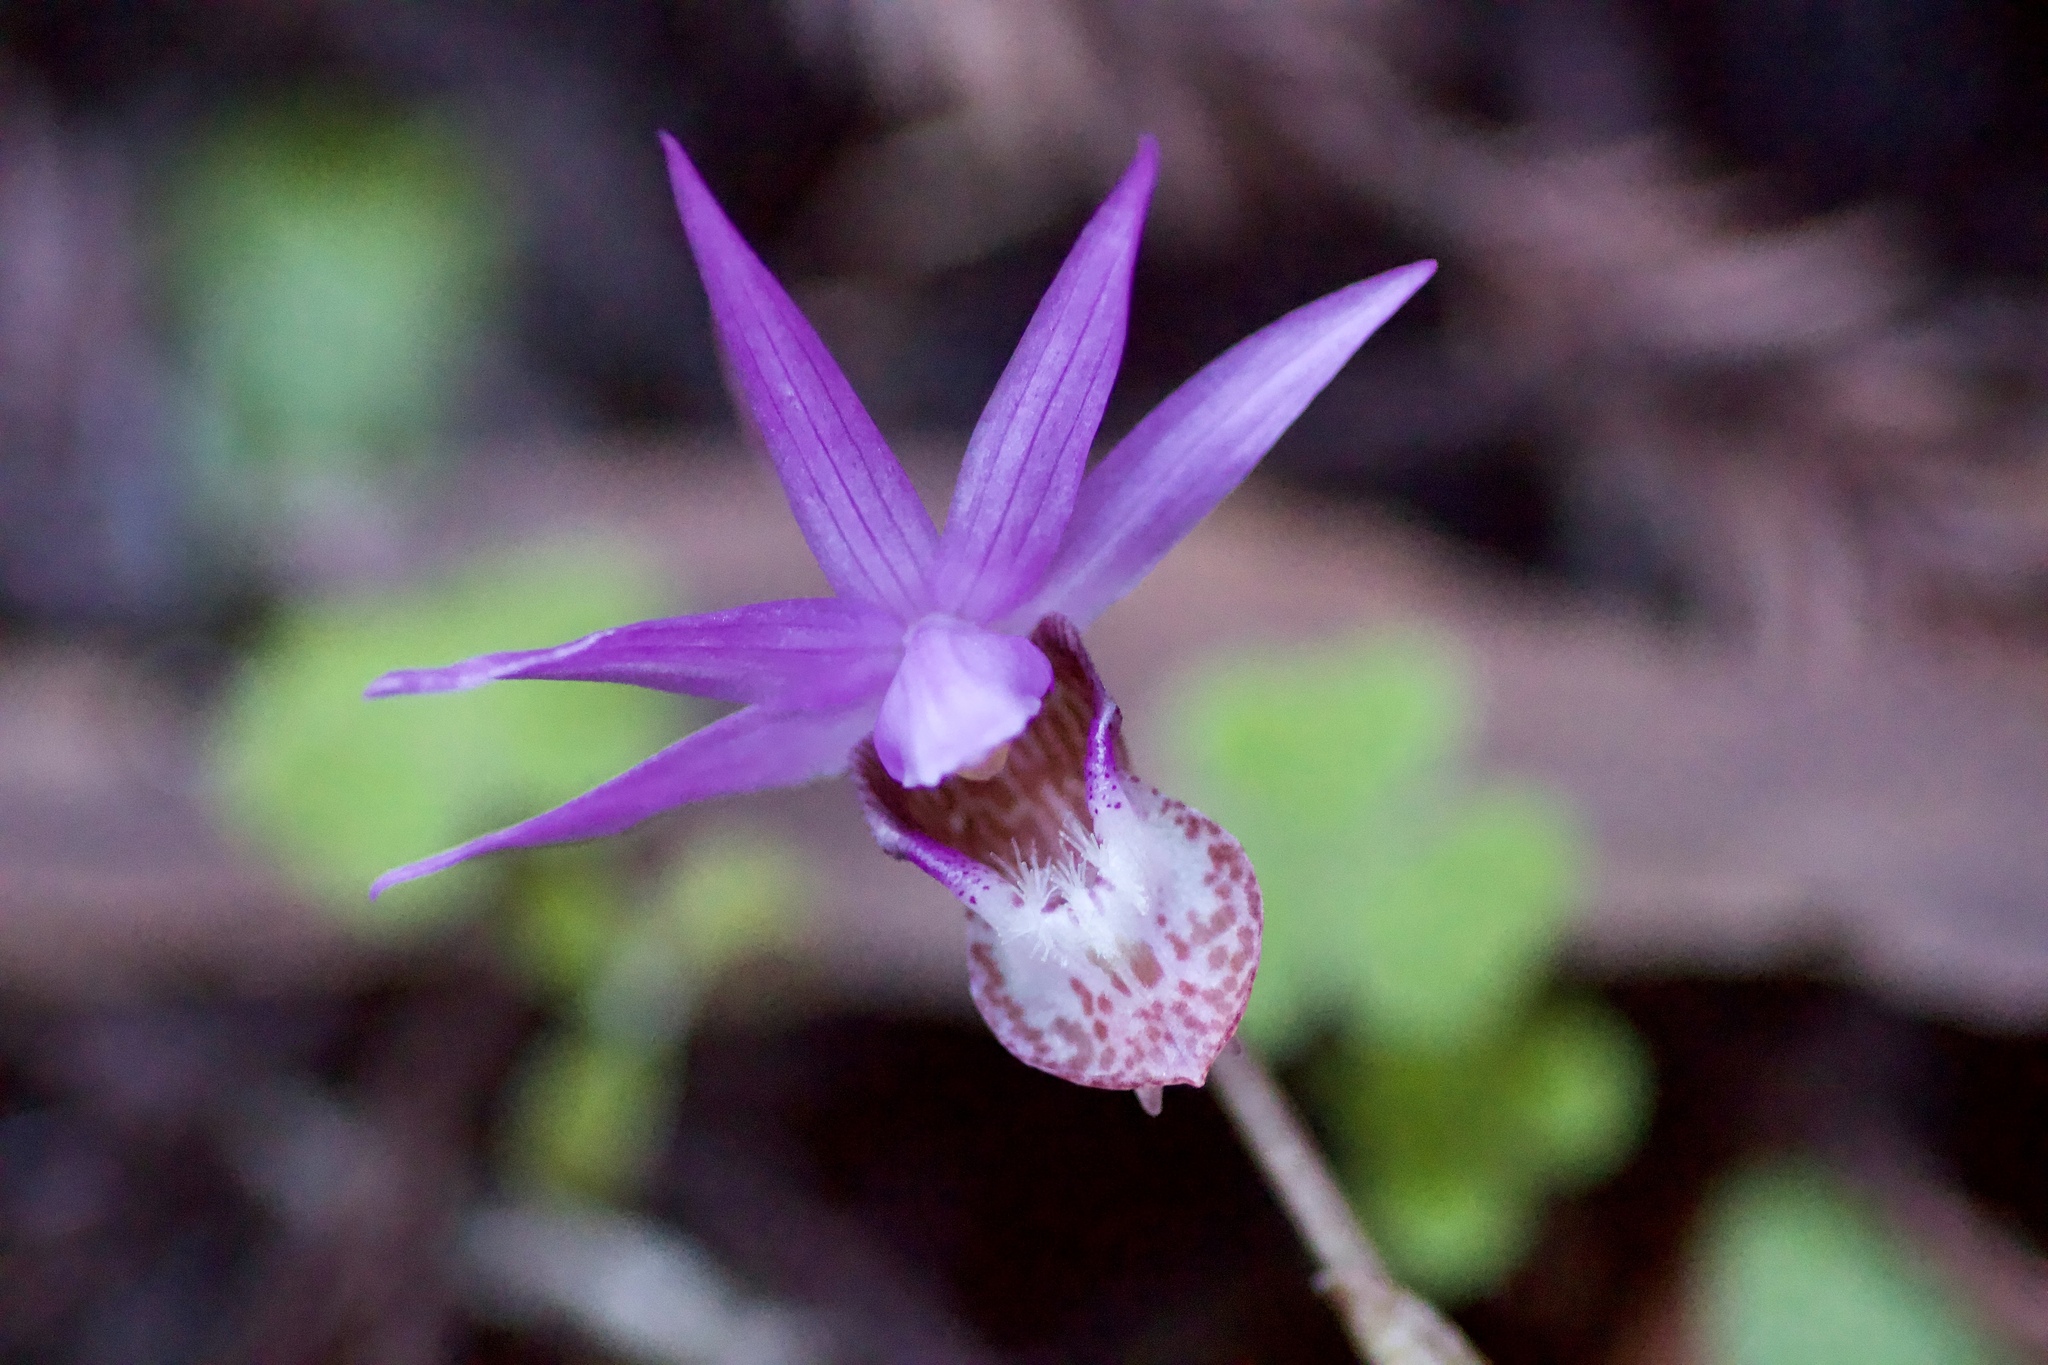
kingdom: Plantae
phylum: Tracheophyta
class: Liliopsida
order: Asparagales
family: Orchidaceae
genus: Calypso
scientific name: Calypso bulbosa
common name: Calypso
